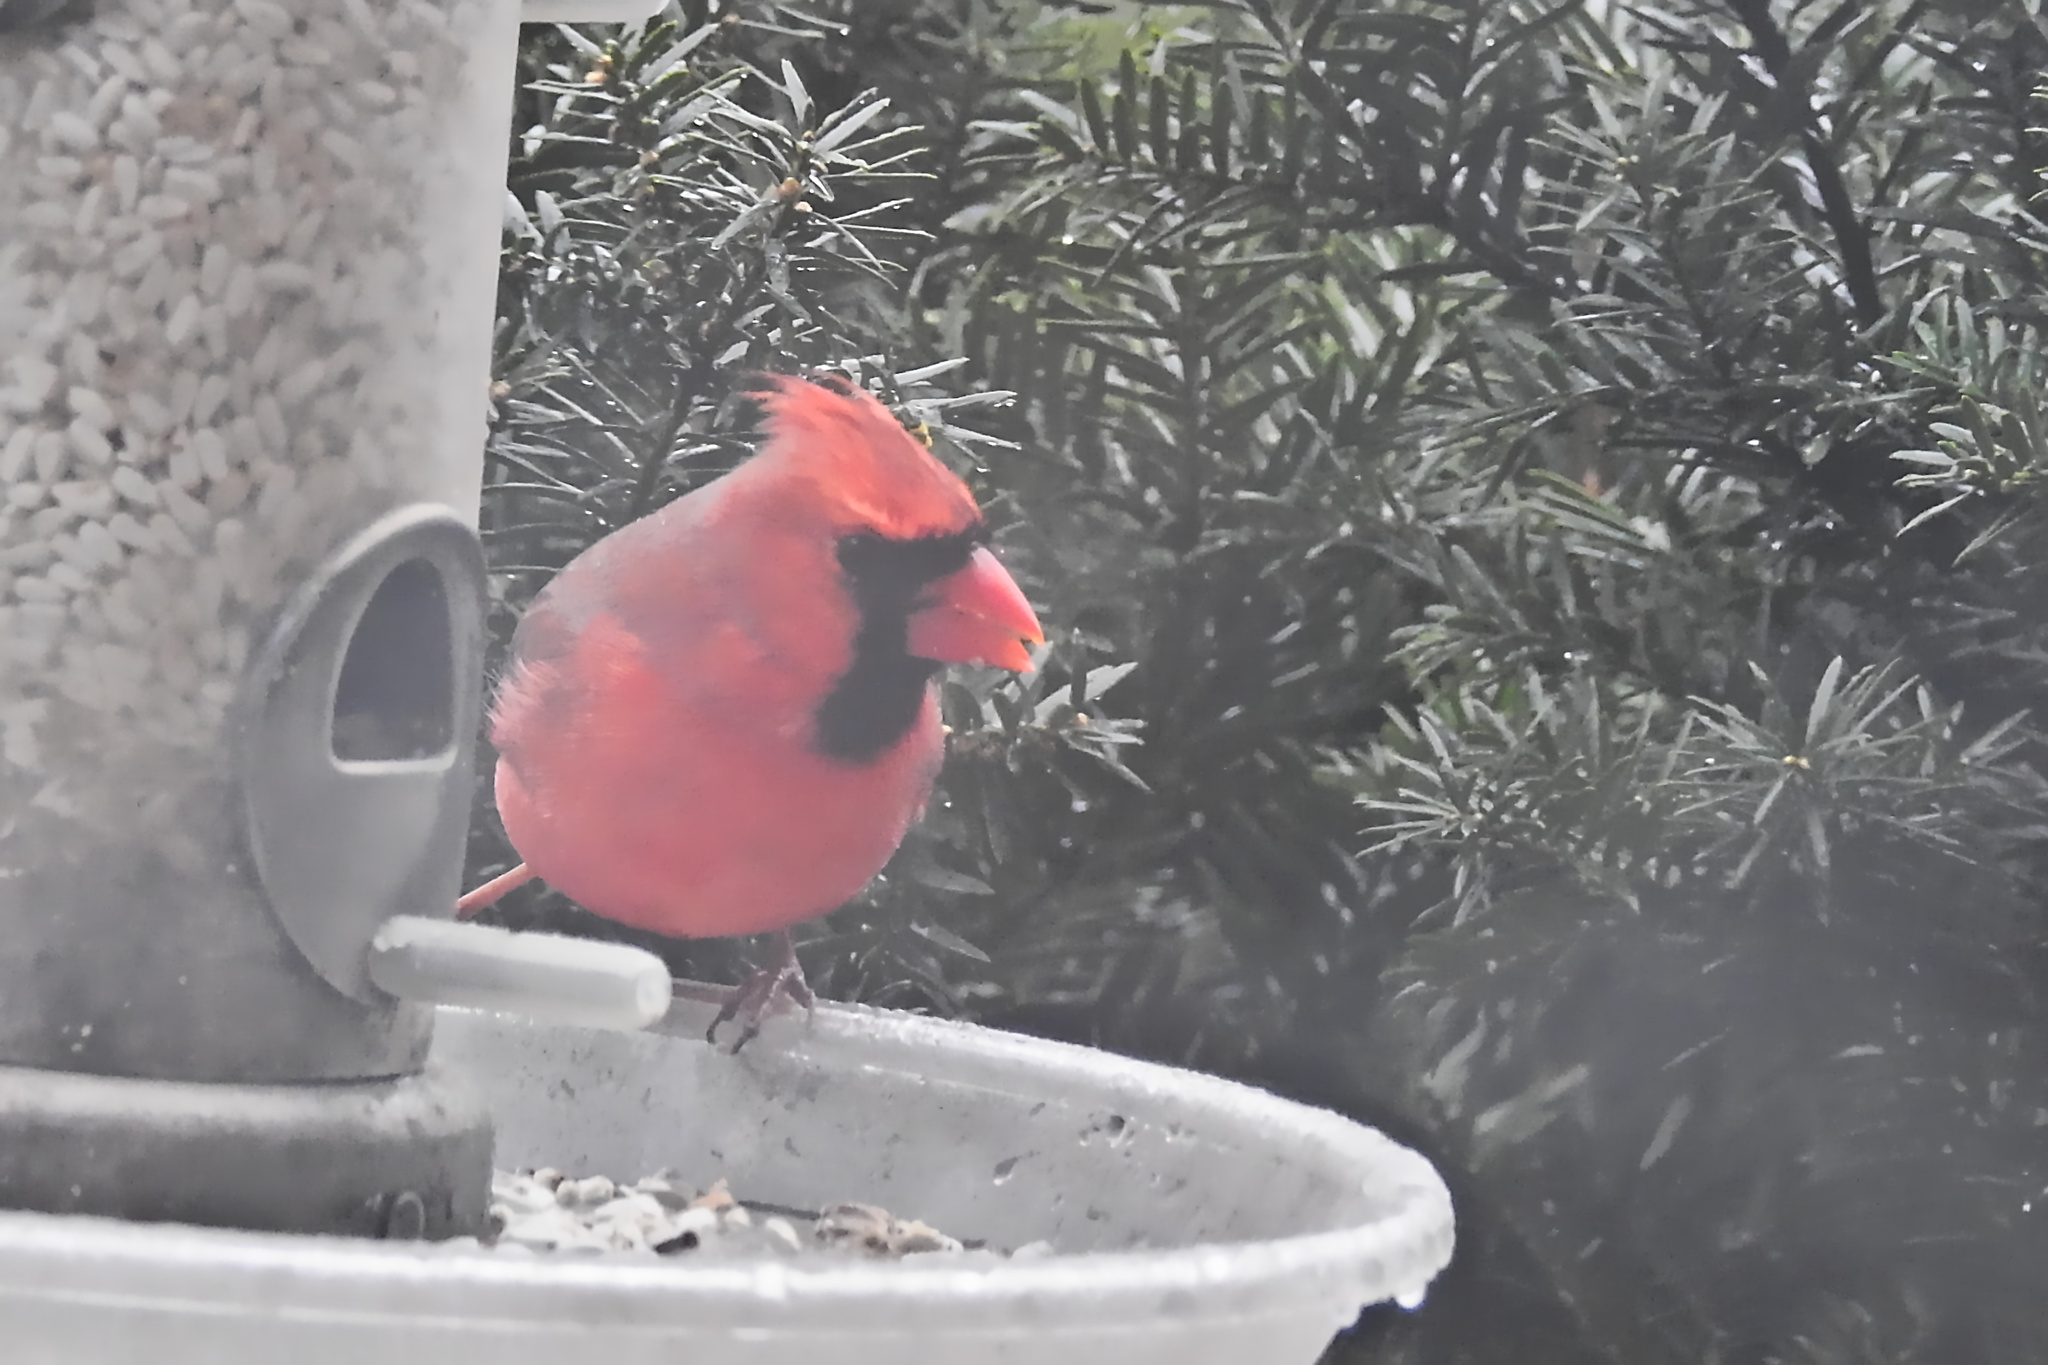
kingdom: Animalia
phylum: Chordata
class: Aves
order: Passeriformes
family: Cardinalidae
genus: Cardinalis
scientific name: Cardinalis cardinalis
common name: Northern cardinal
